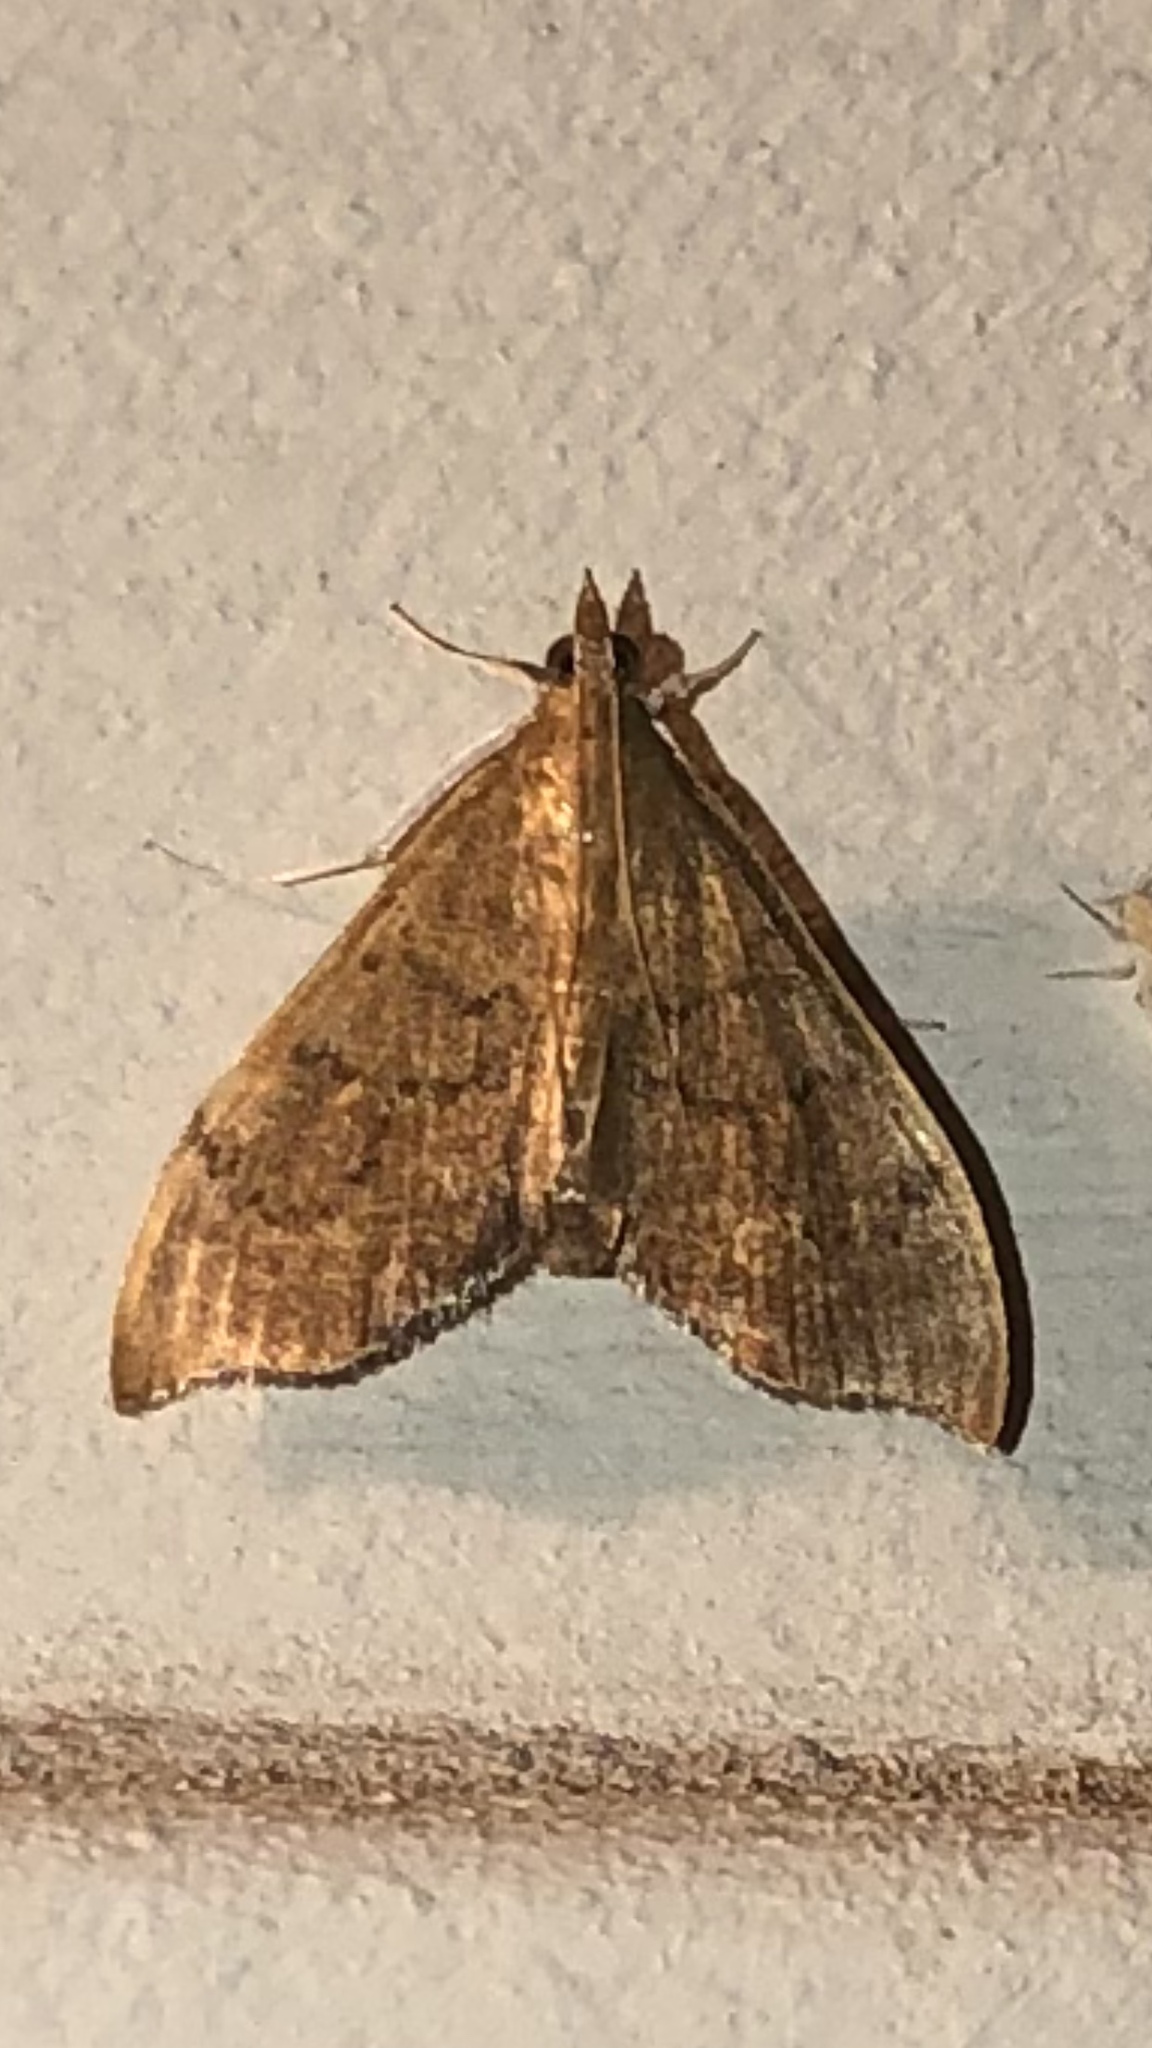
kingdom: Animalia
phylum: Arthropoda
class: Insecta
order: Lepidoptera
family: Crambidae
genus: Sericoplaga
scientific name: Sericoplaga externalis
